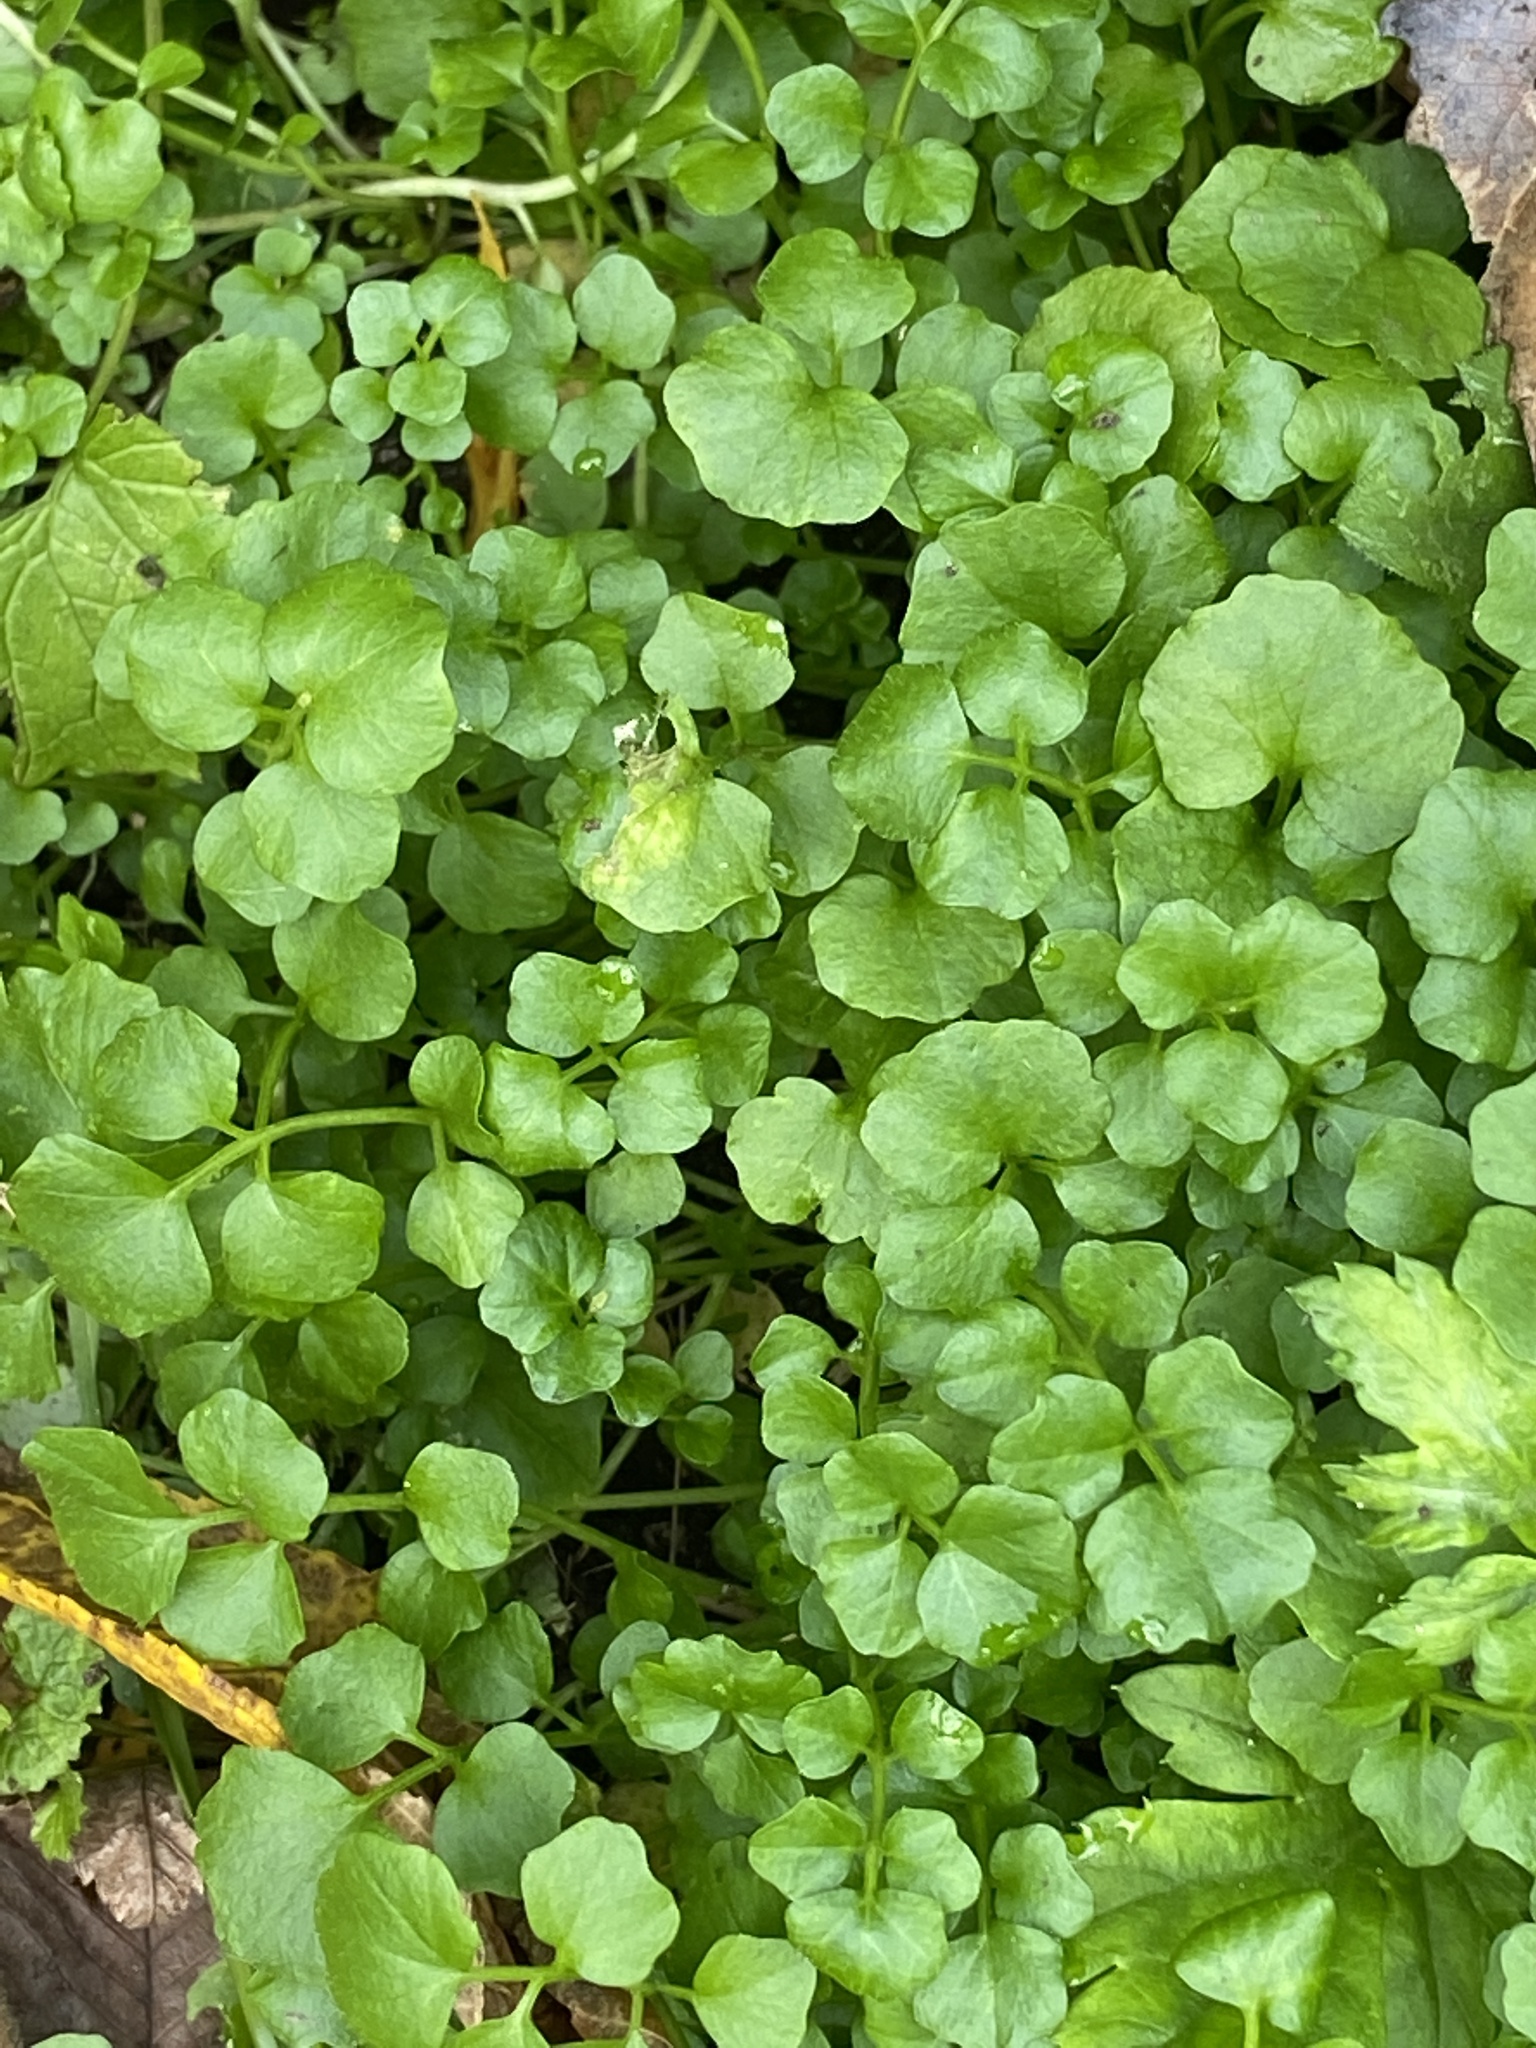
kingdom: Plantae
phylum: Tracheophyta
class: Magnoliopsida
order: Brassicales
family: Brassicaceae
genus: Cardamine
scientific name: Cardamine hirsuta
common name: Hairy bittercress
